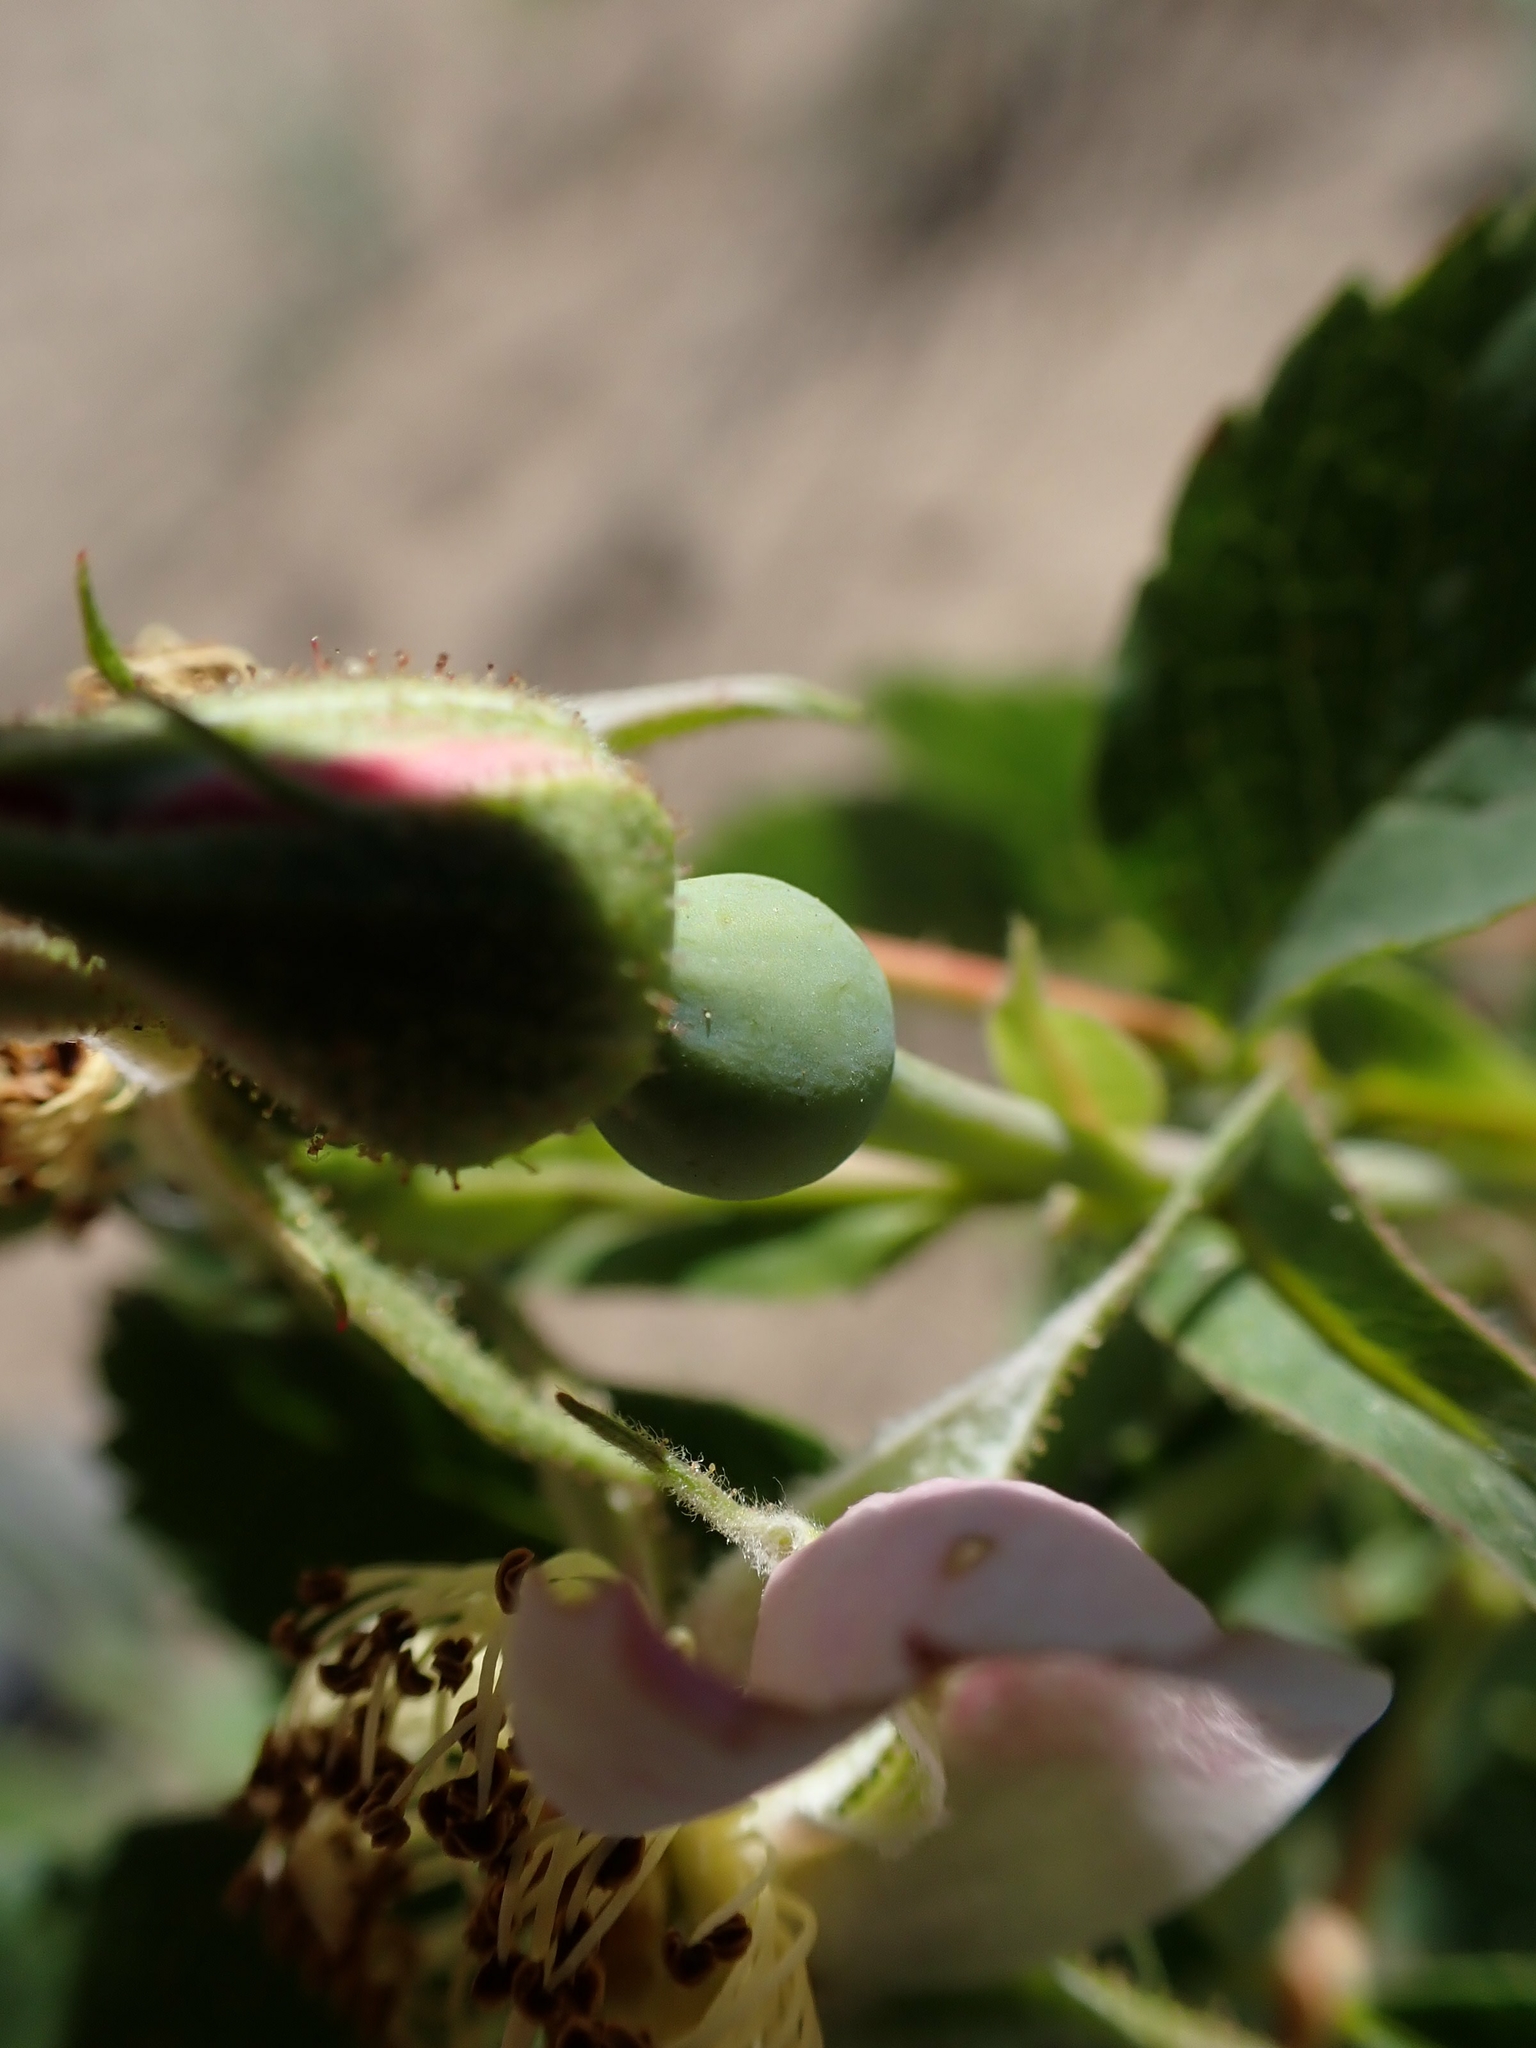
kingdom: Plantae
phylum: Tracheophyta
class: Magnoliopsida
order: Rosales
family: Rosaceae
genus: Rosa
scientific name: Rosa arkansana
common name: Prairie rose
